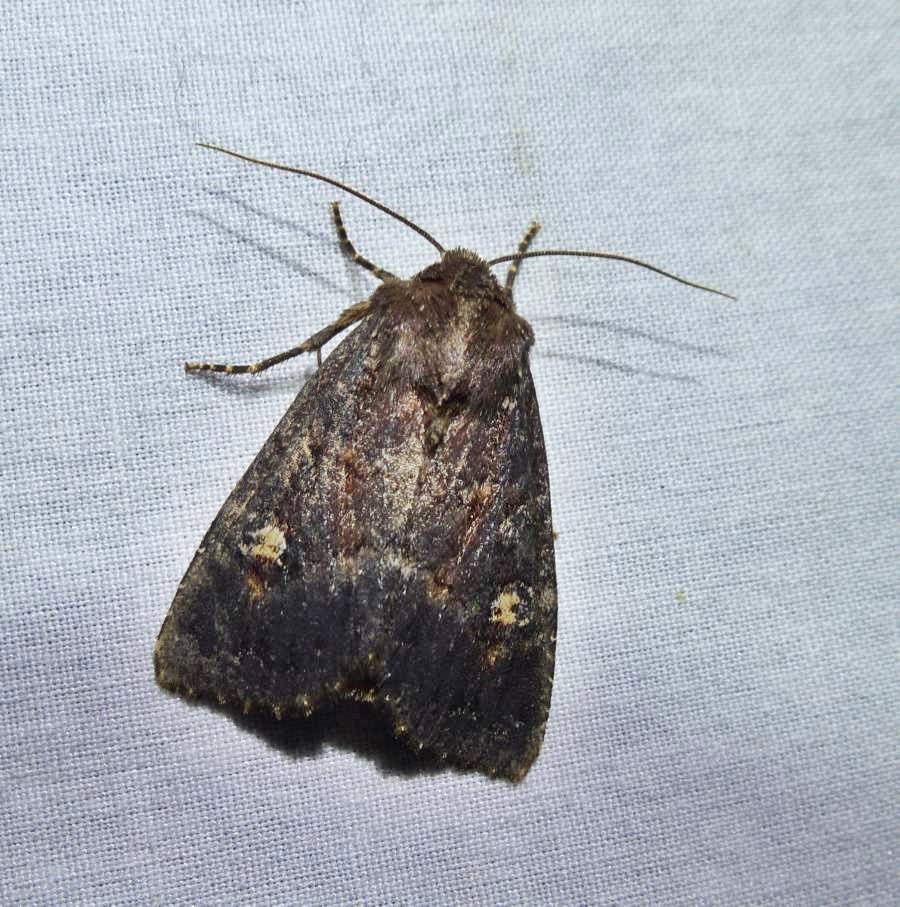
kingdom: Animalia
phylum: Arthropoda
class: Insecta
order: Lepidoptera
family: Noctuidae
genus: Apamea
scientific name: Apamea dubitans
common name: Doubtful apamea moth
